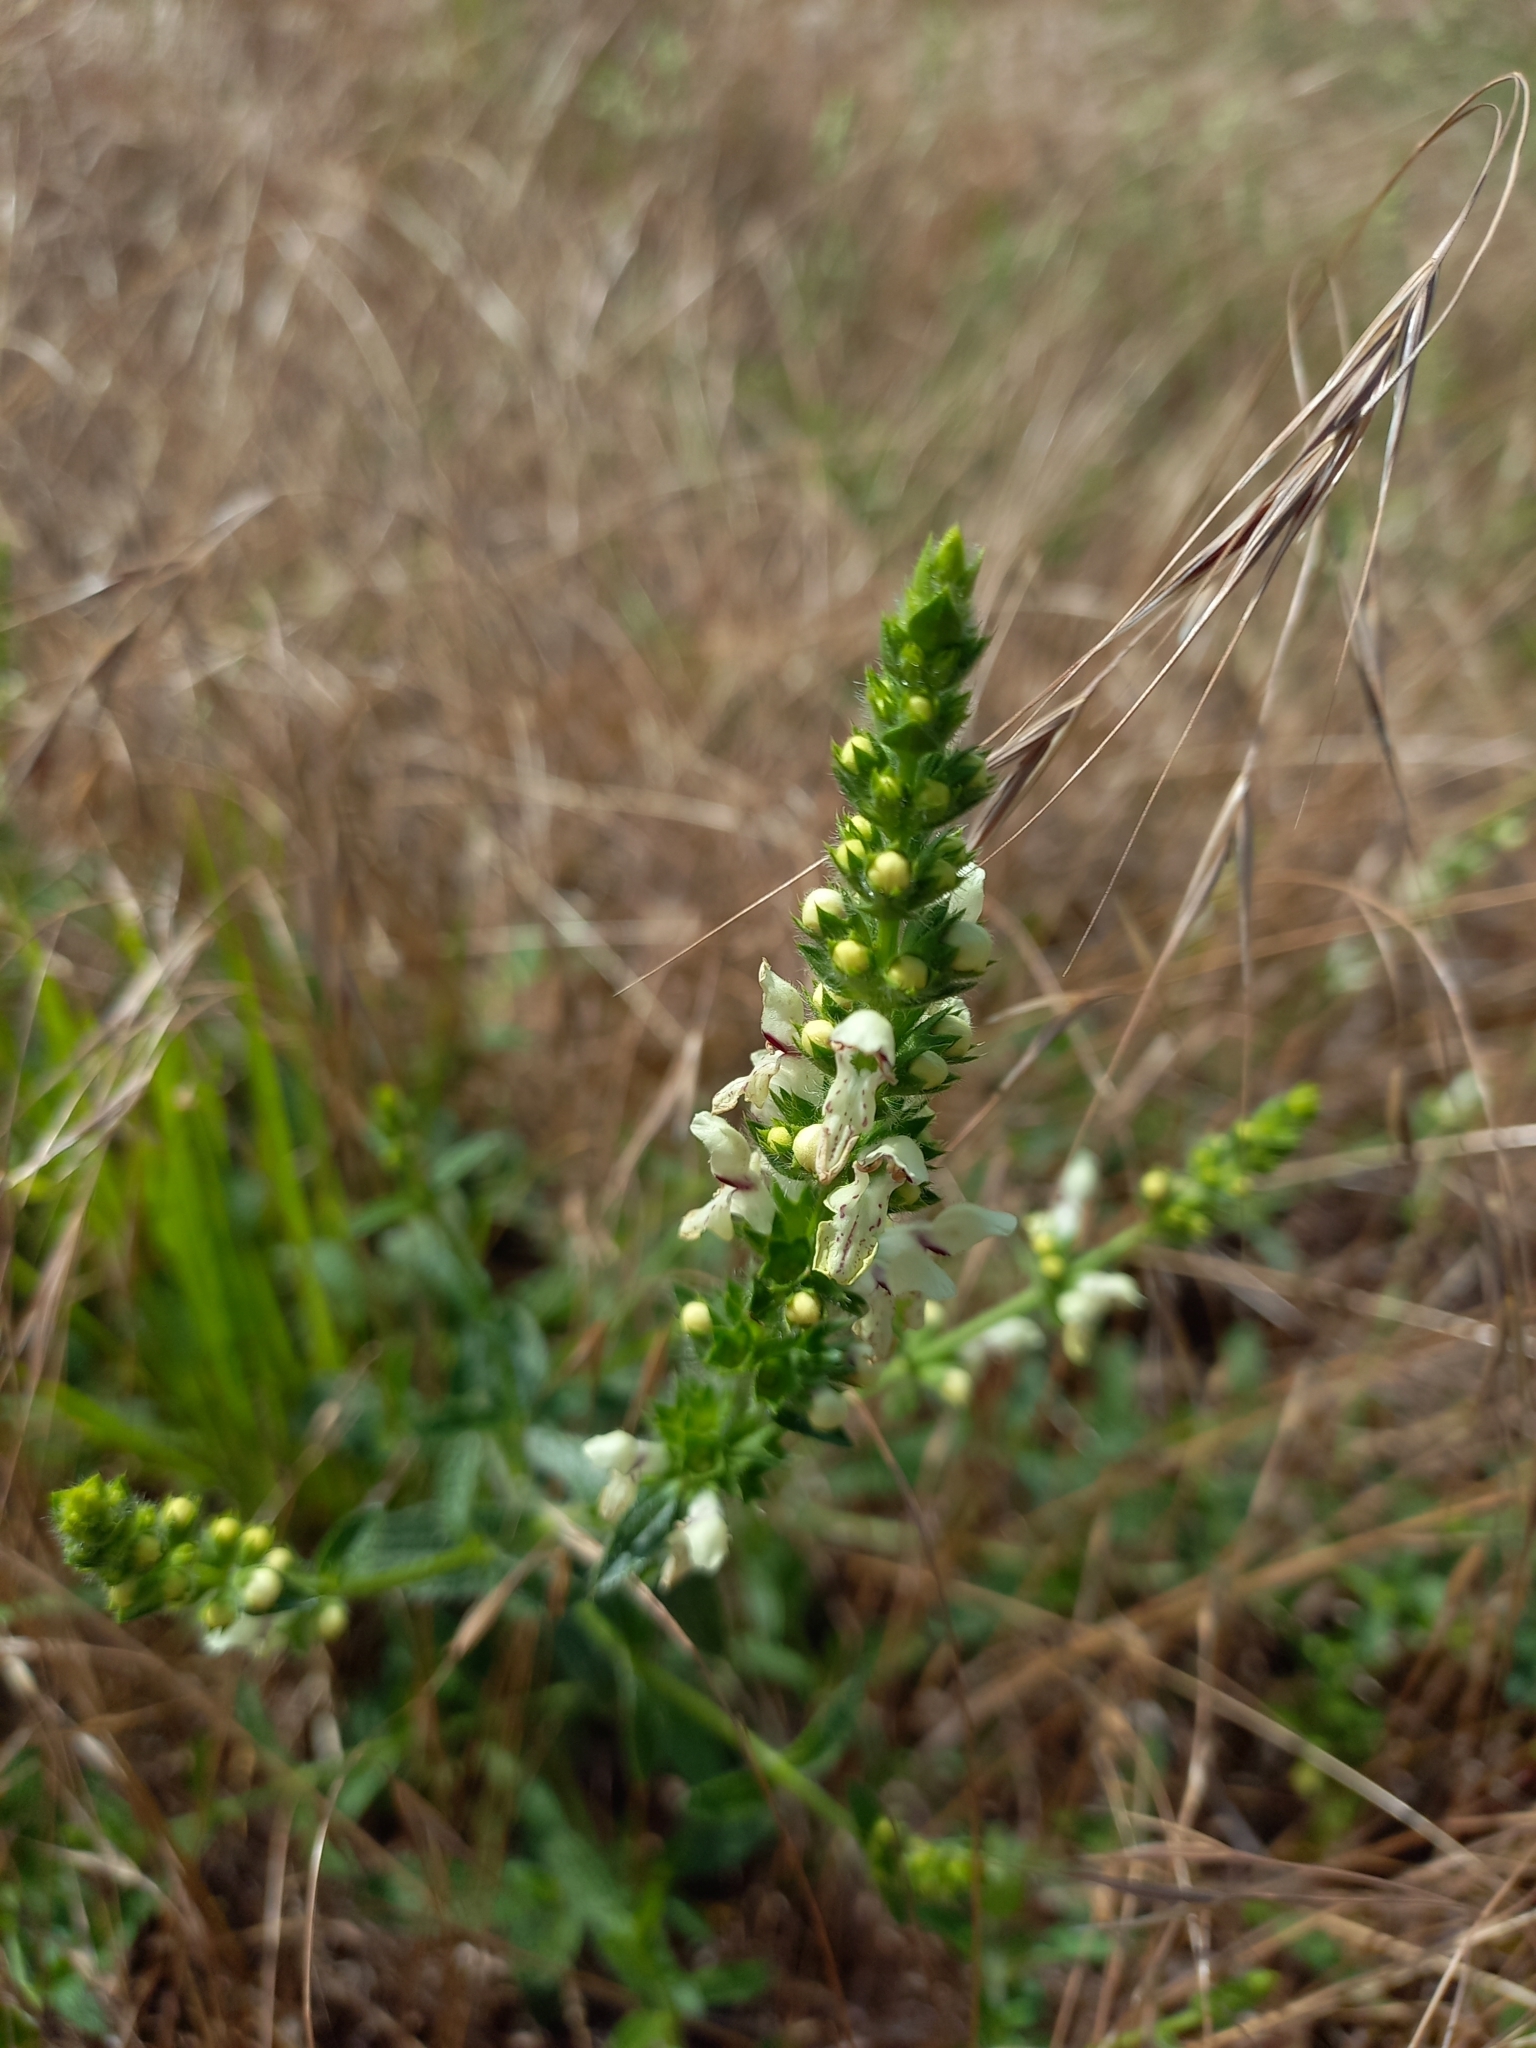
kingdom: Plantae
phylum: Tracheophyta
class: Magnoliopsida
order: Lamiales
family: Lamiaceae
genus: Stachys
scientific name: Stachys recta
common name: Perennial yellow-woundwort
